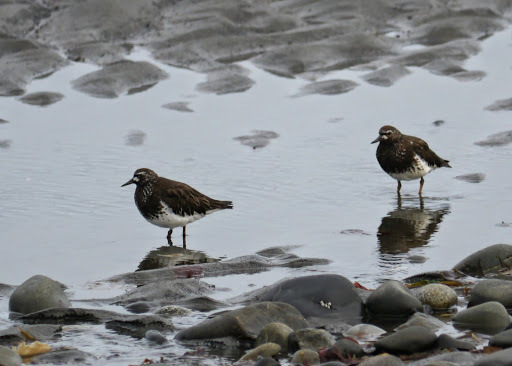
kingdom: Animalia
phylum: Chordata
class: Aves
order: Charadriiformes
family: Scolopacidae
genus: Arenaria
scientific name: Arenaria melanocephala
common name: Black turnstone
